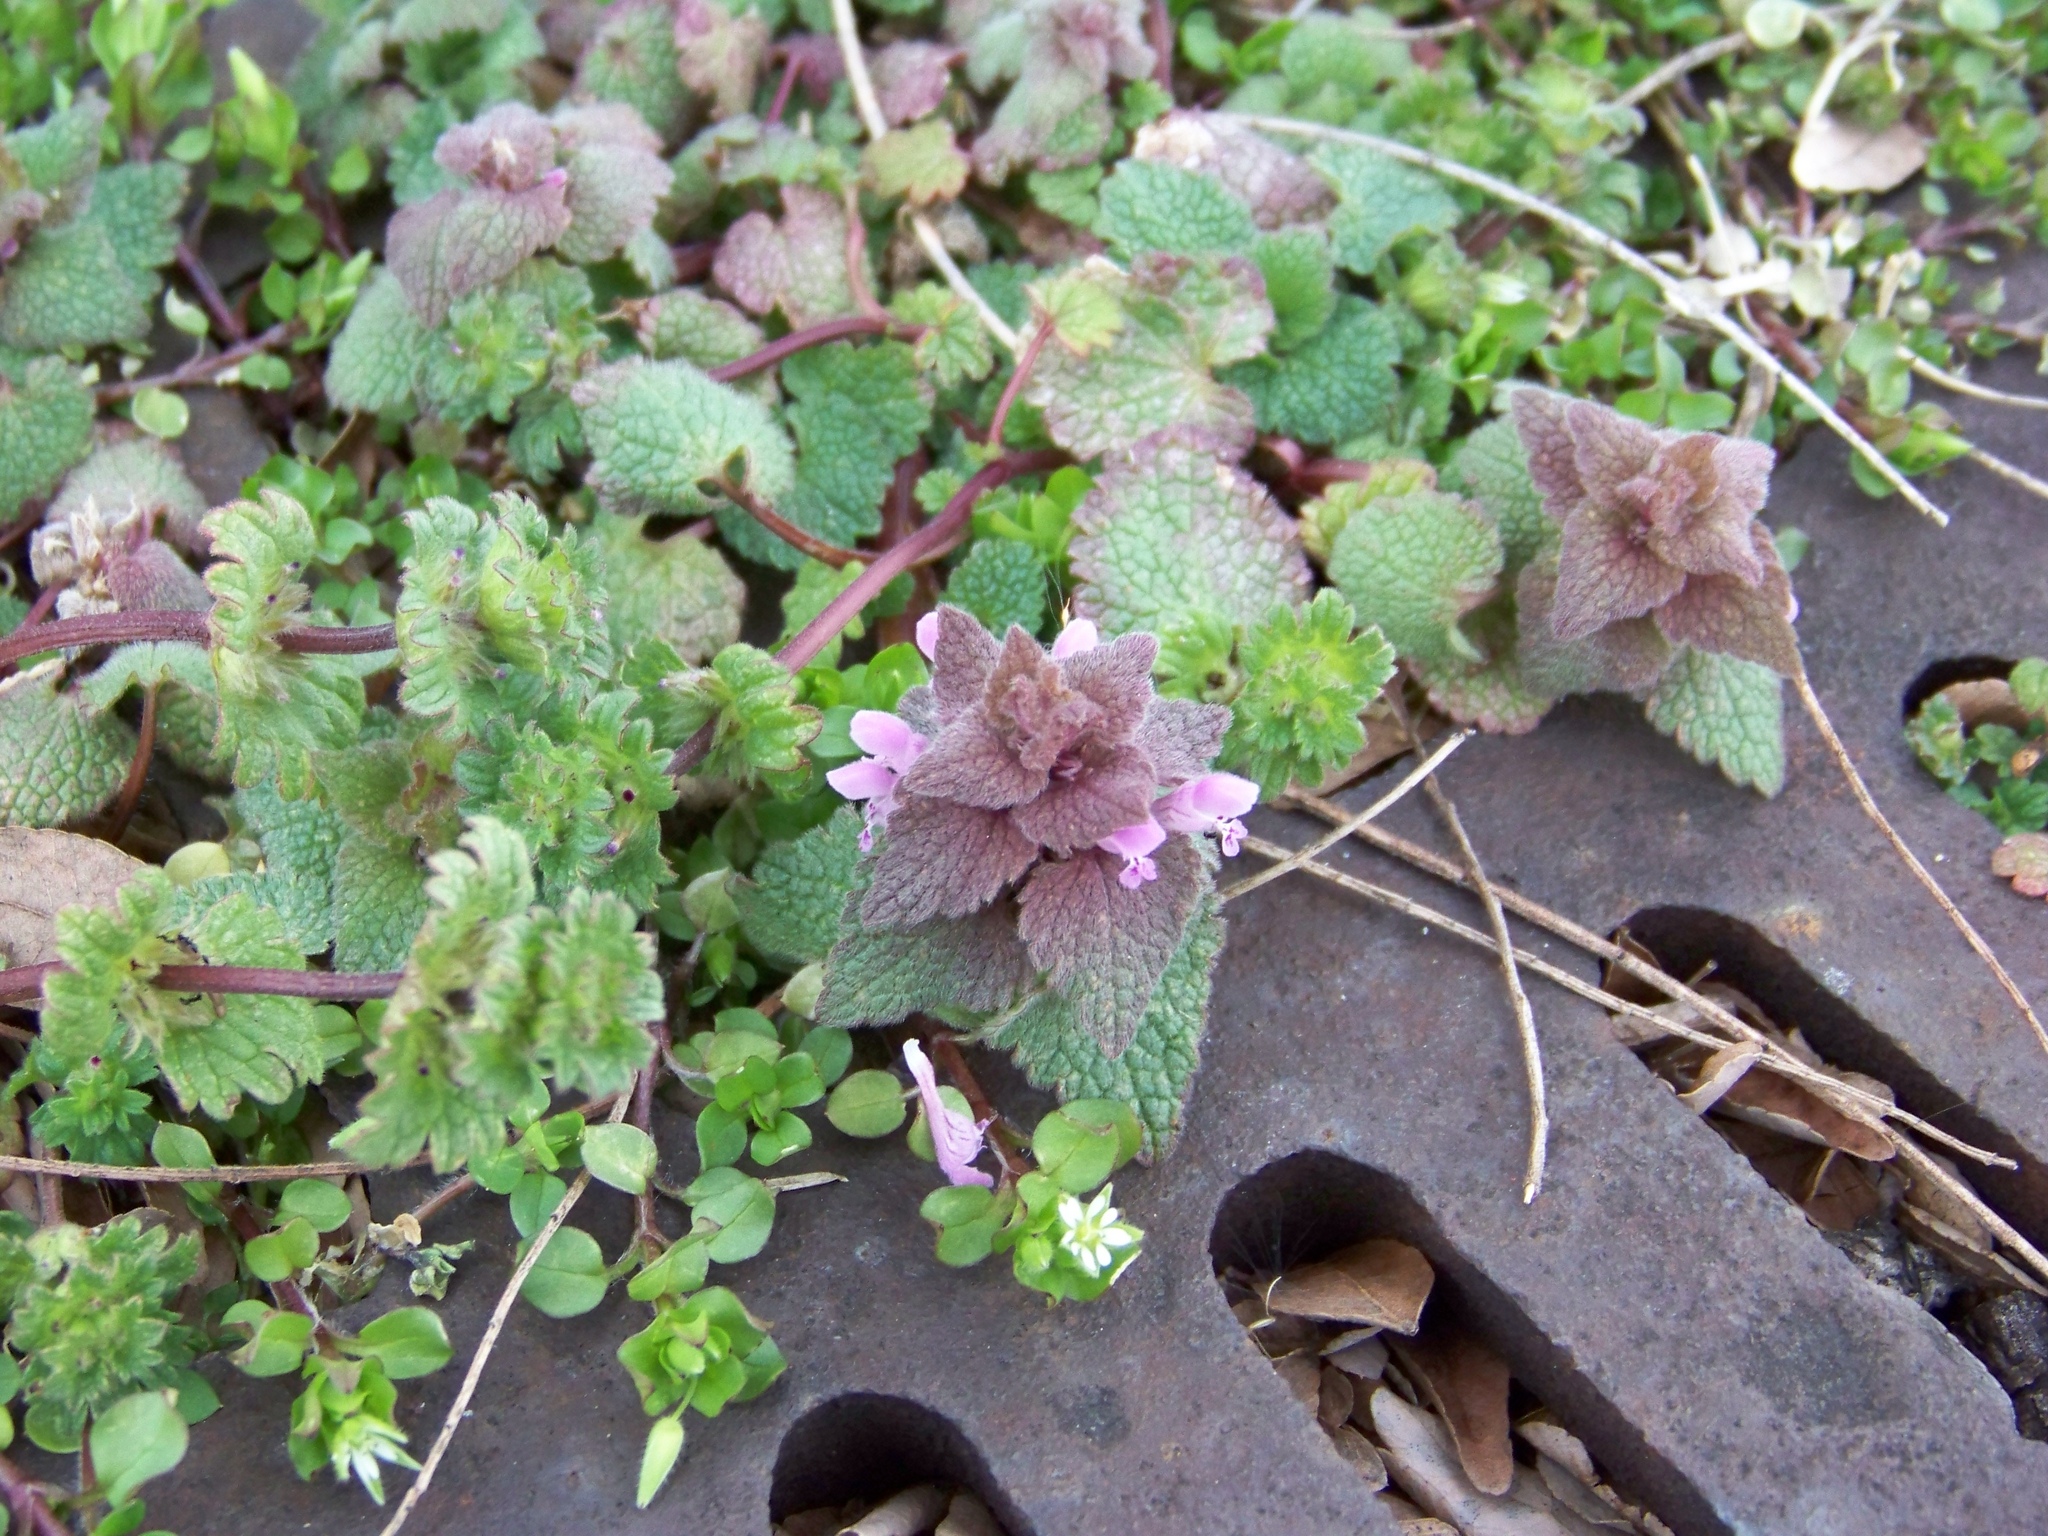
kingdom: Plantae
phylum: Tracheophyta
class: Magnoliopsida
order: Lamiales
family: Lamiaceae
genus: Lamium
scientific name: Lamium purpureum
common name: Red dead-nettle
